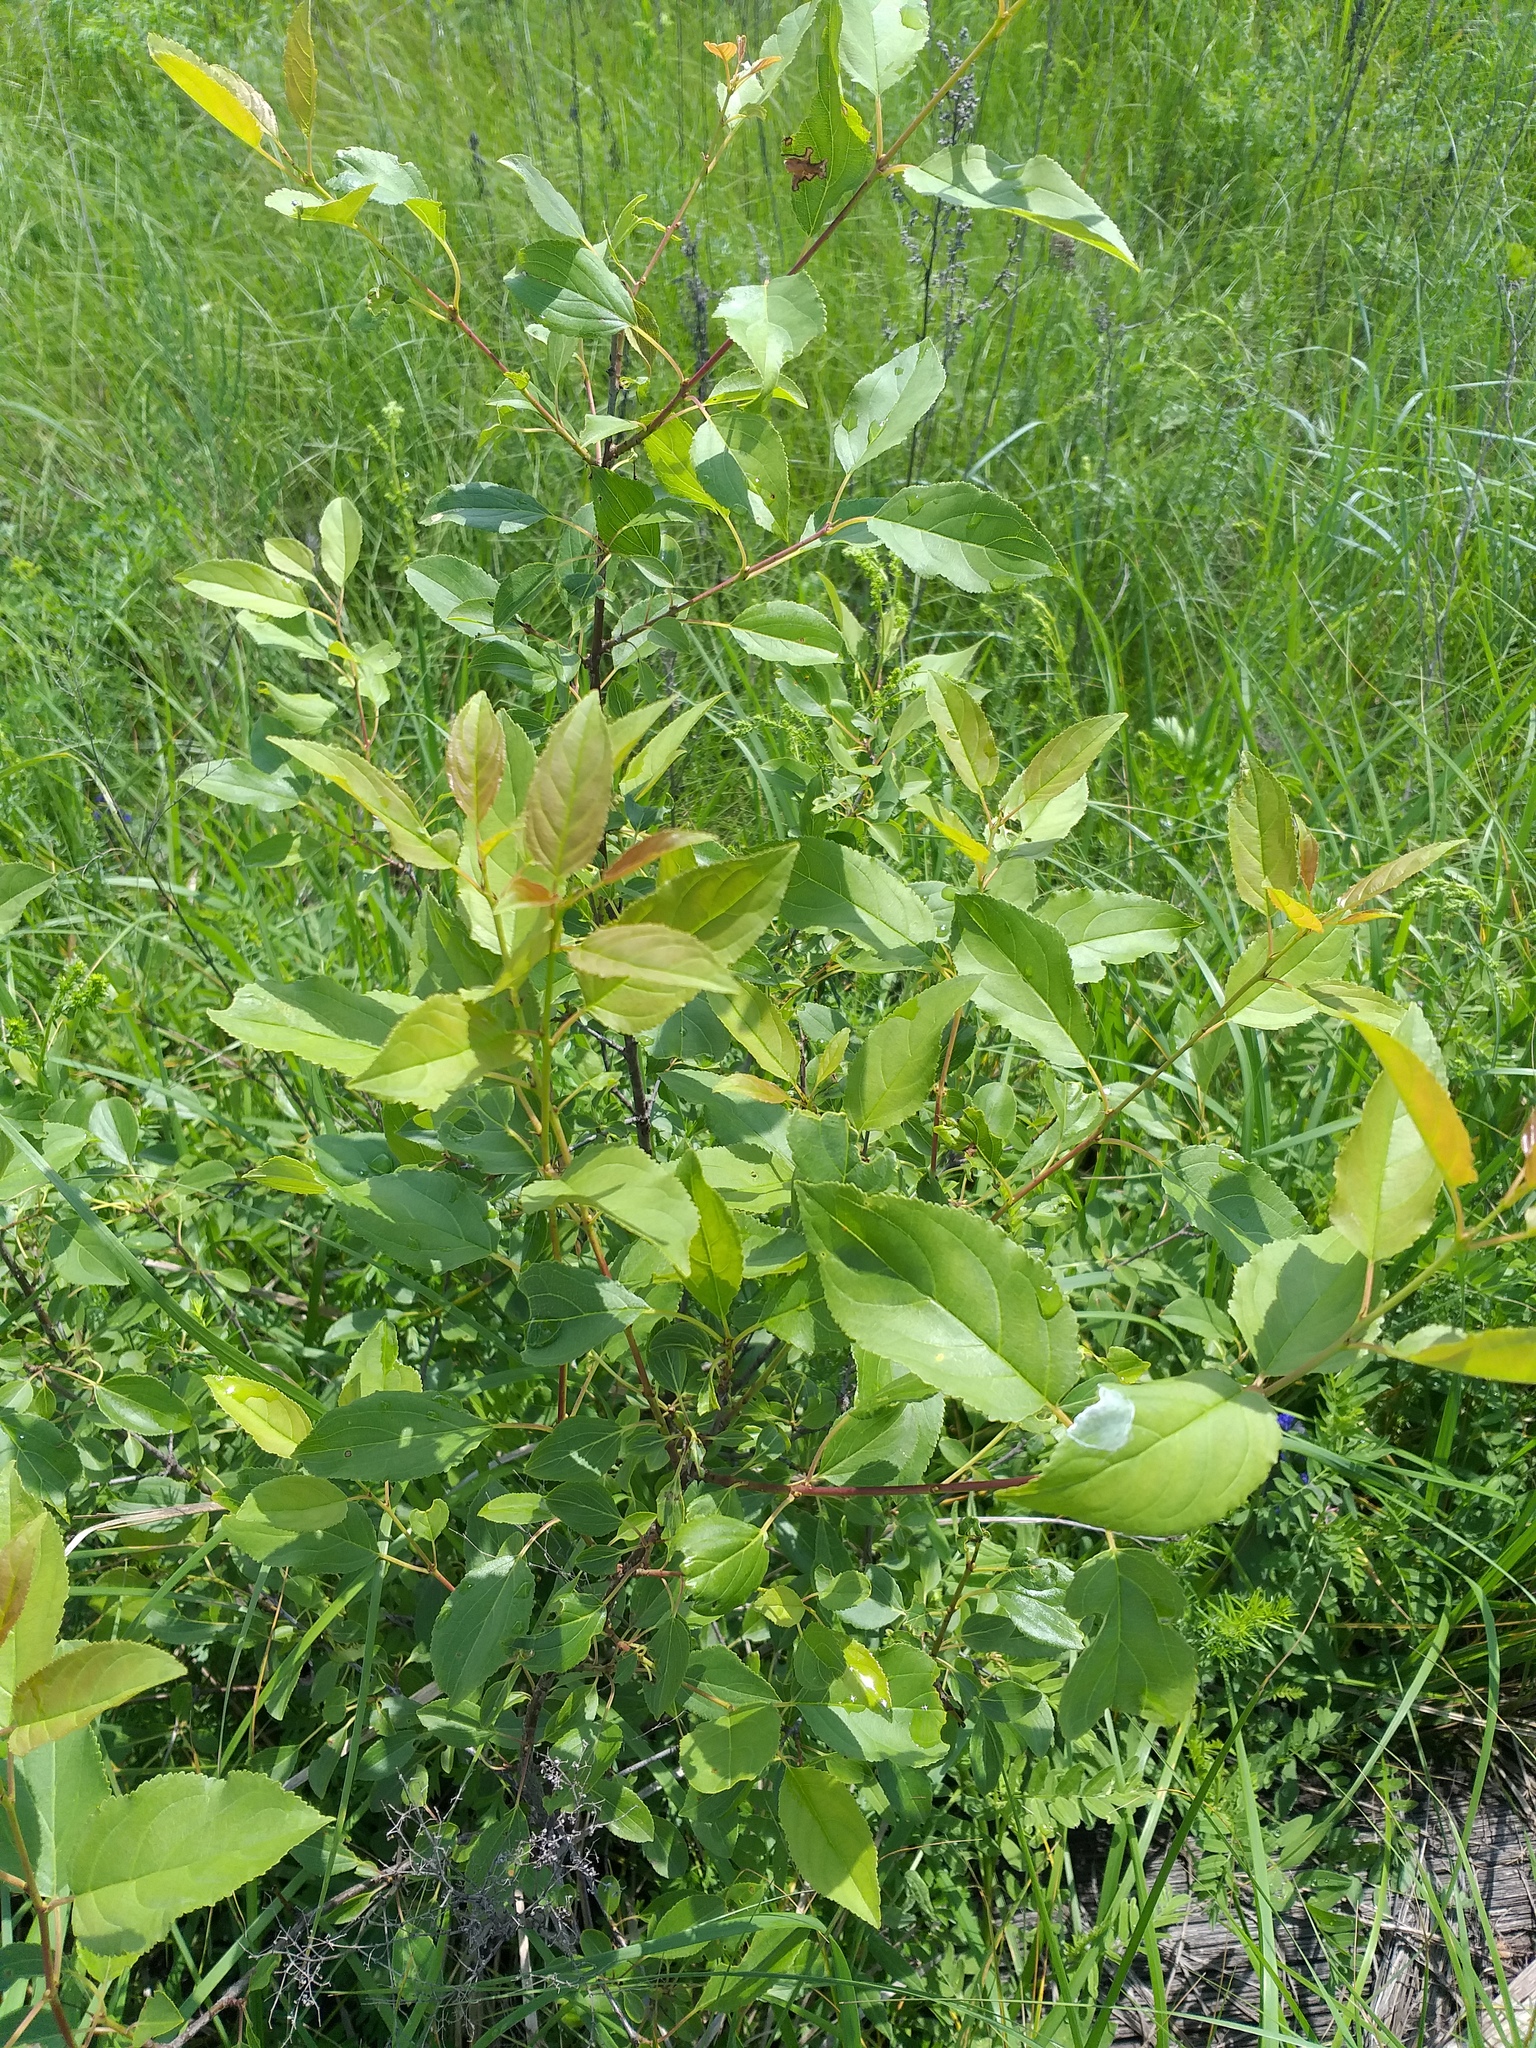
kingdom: Plantae
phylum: Tracheophyta
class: Magnoliopsida
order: Rosales
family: Rhamnaceae
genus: Rhamnus
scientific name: Rhamnus cathartica
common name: Common buckthorn
